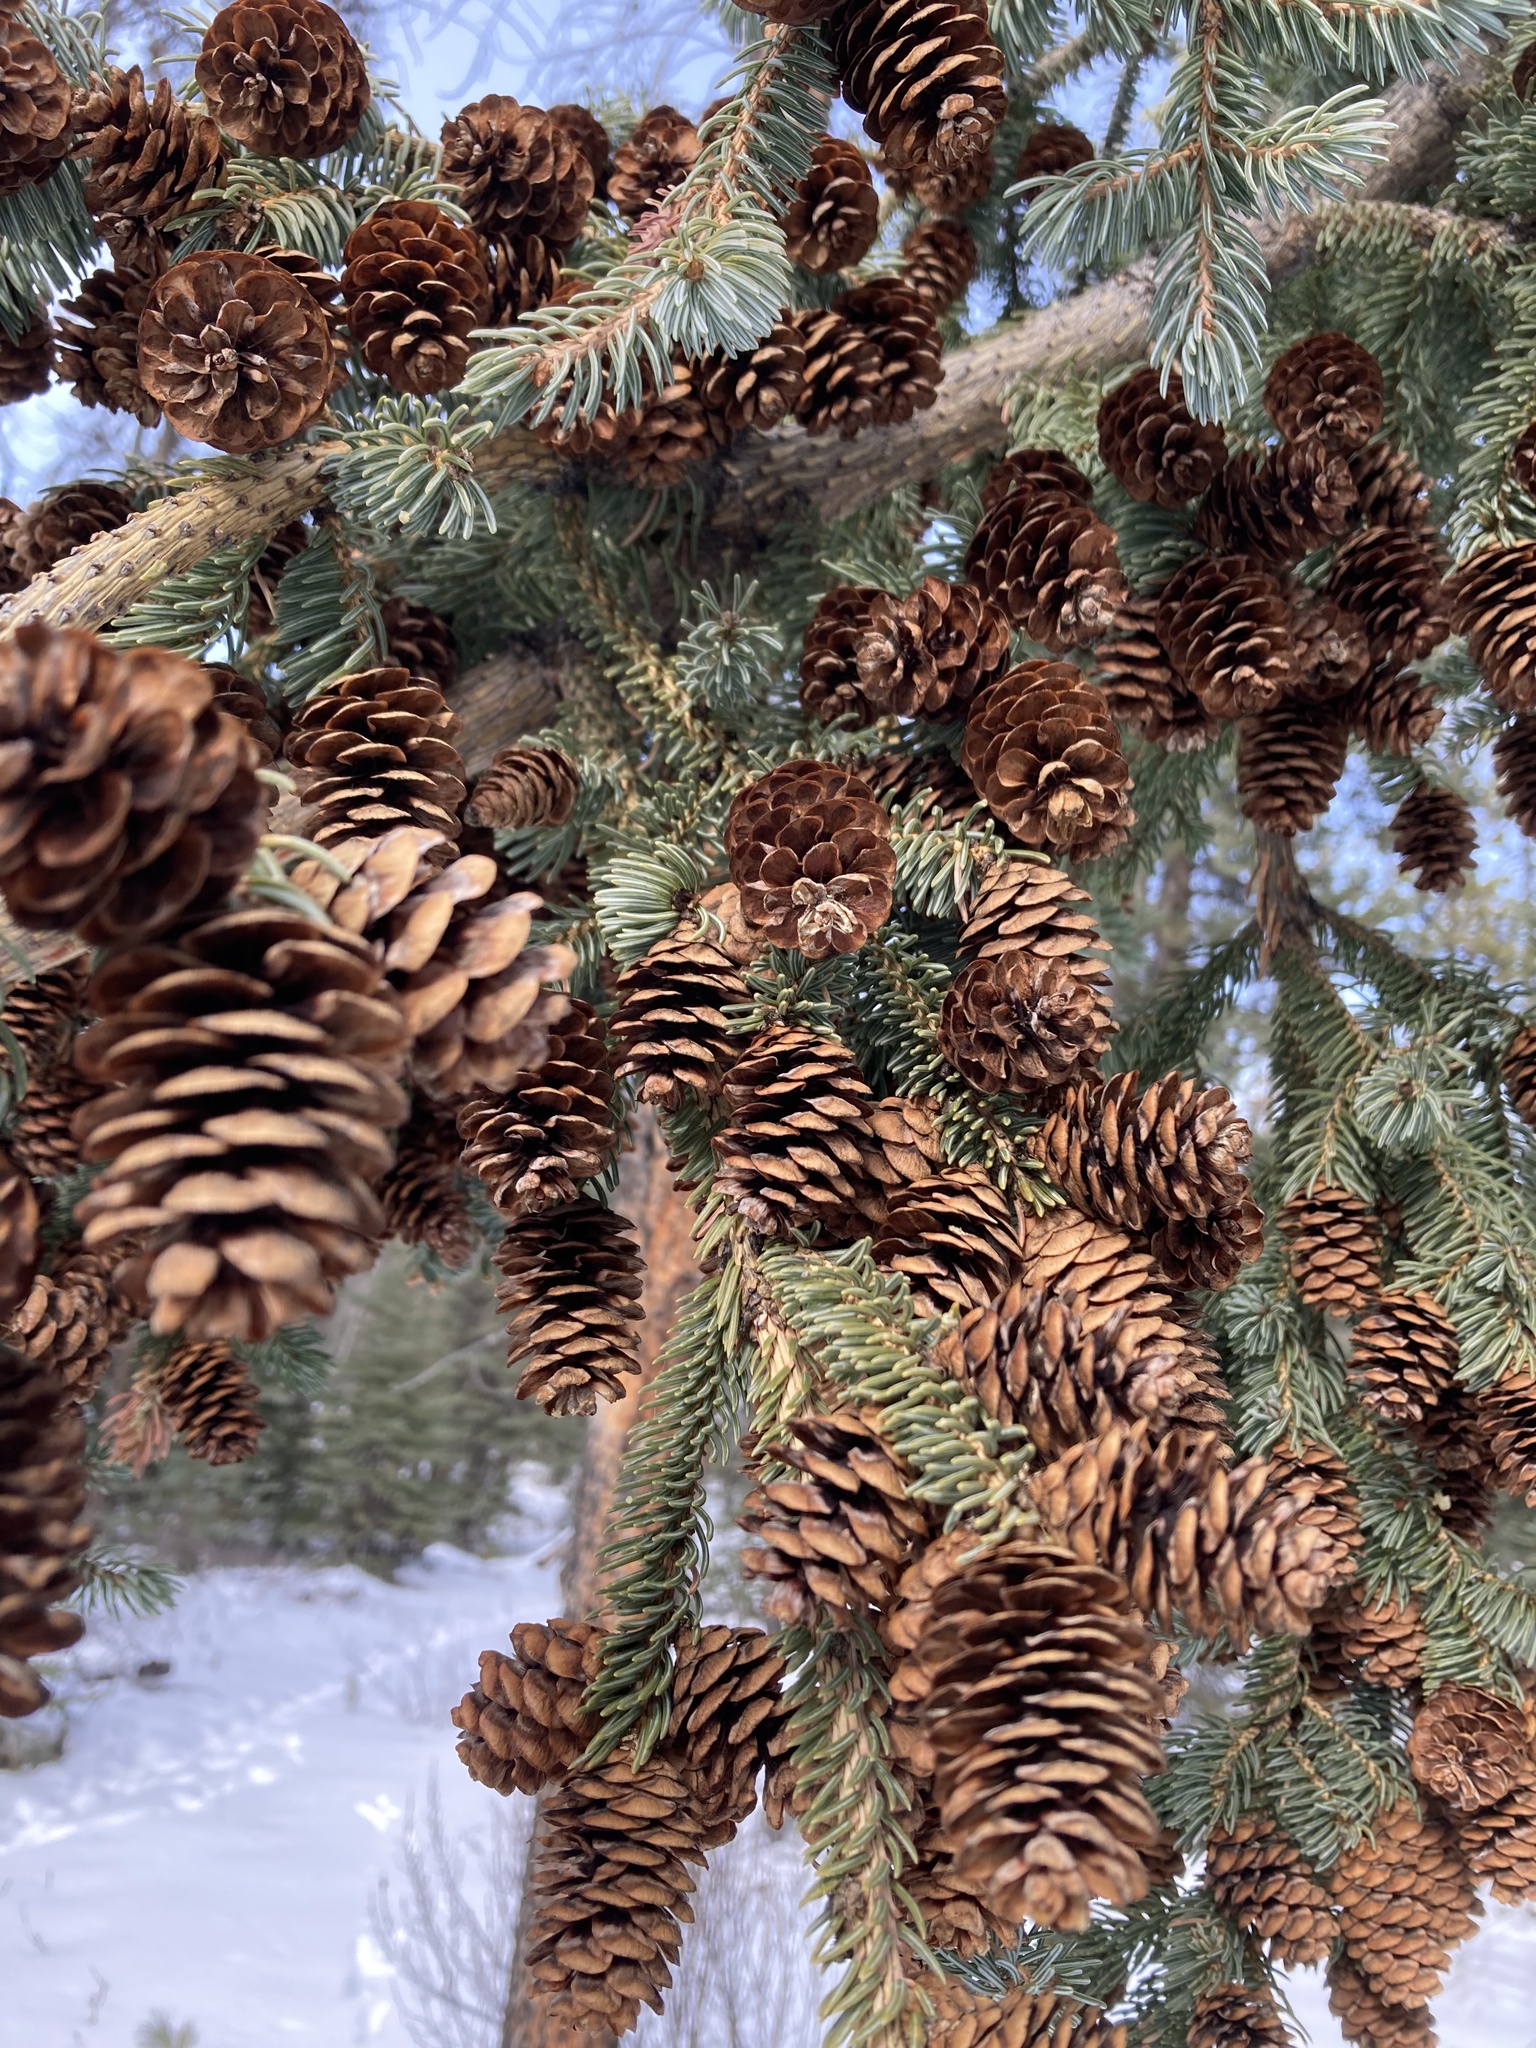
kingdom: Plantae
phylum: Tracheophyta
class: Pinopsida
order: Pinales
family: Pinaceae
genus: Picea
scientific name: Picea glauca
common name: White spruce
